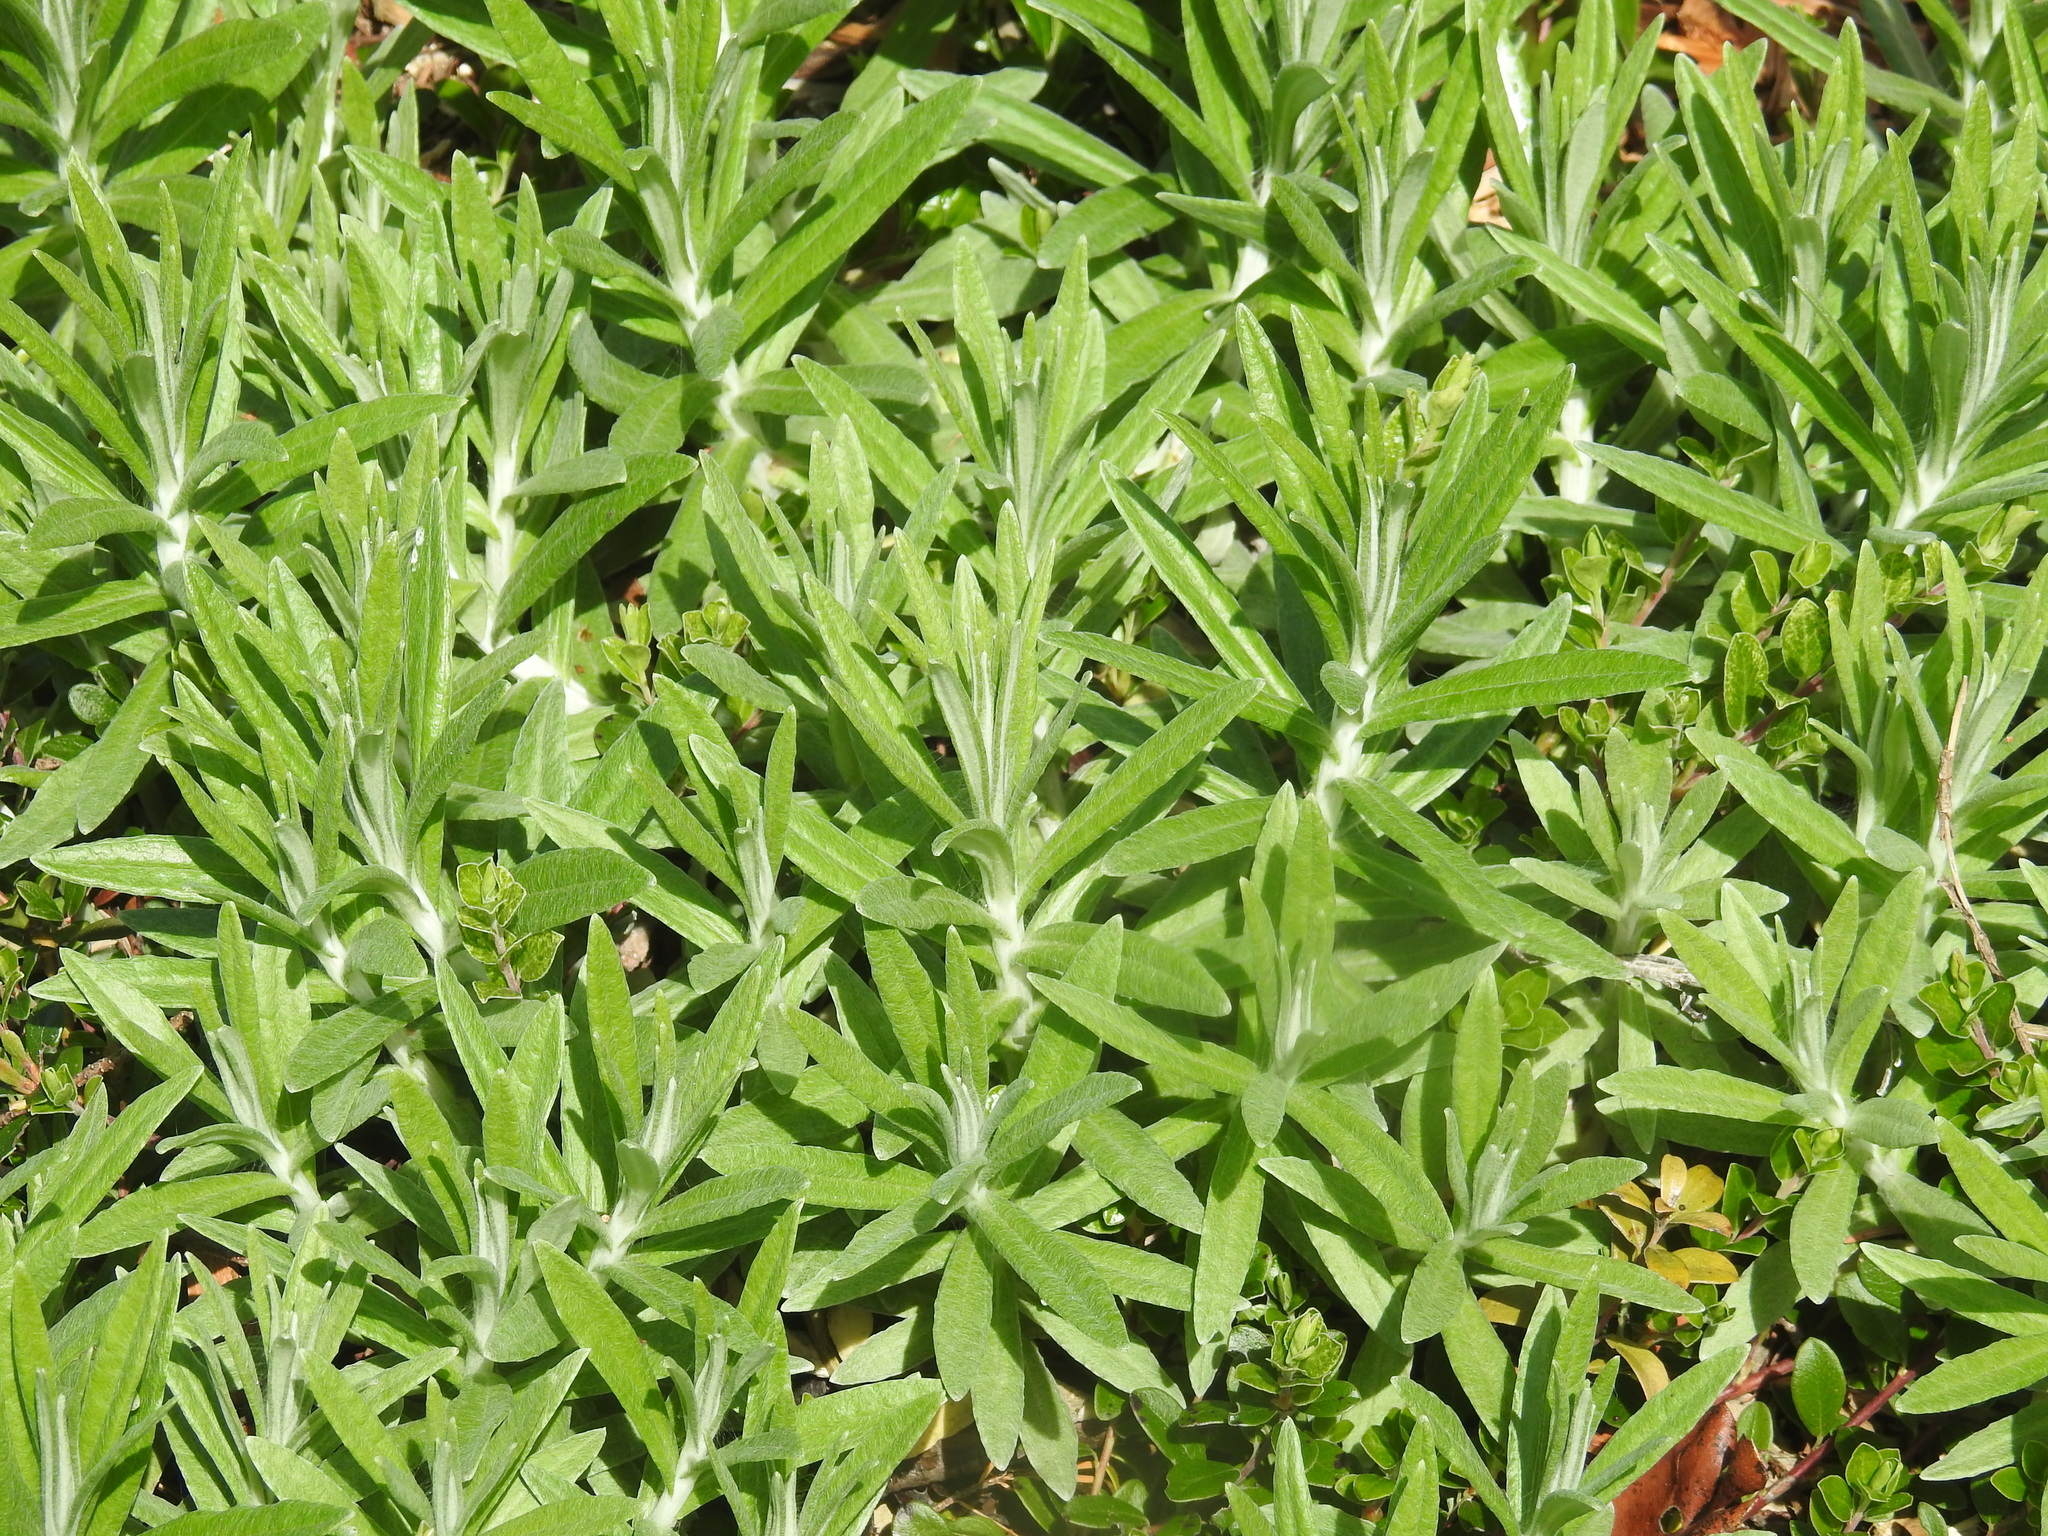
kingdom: Plantae
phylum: Tracheophyta
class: Magnoliopsida
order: Asterales
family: Asteraceae
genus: Anaphalis
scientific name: Anaphalis margaritacea
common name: Pearly everlasting
